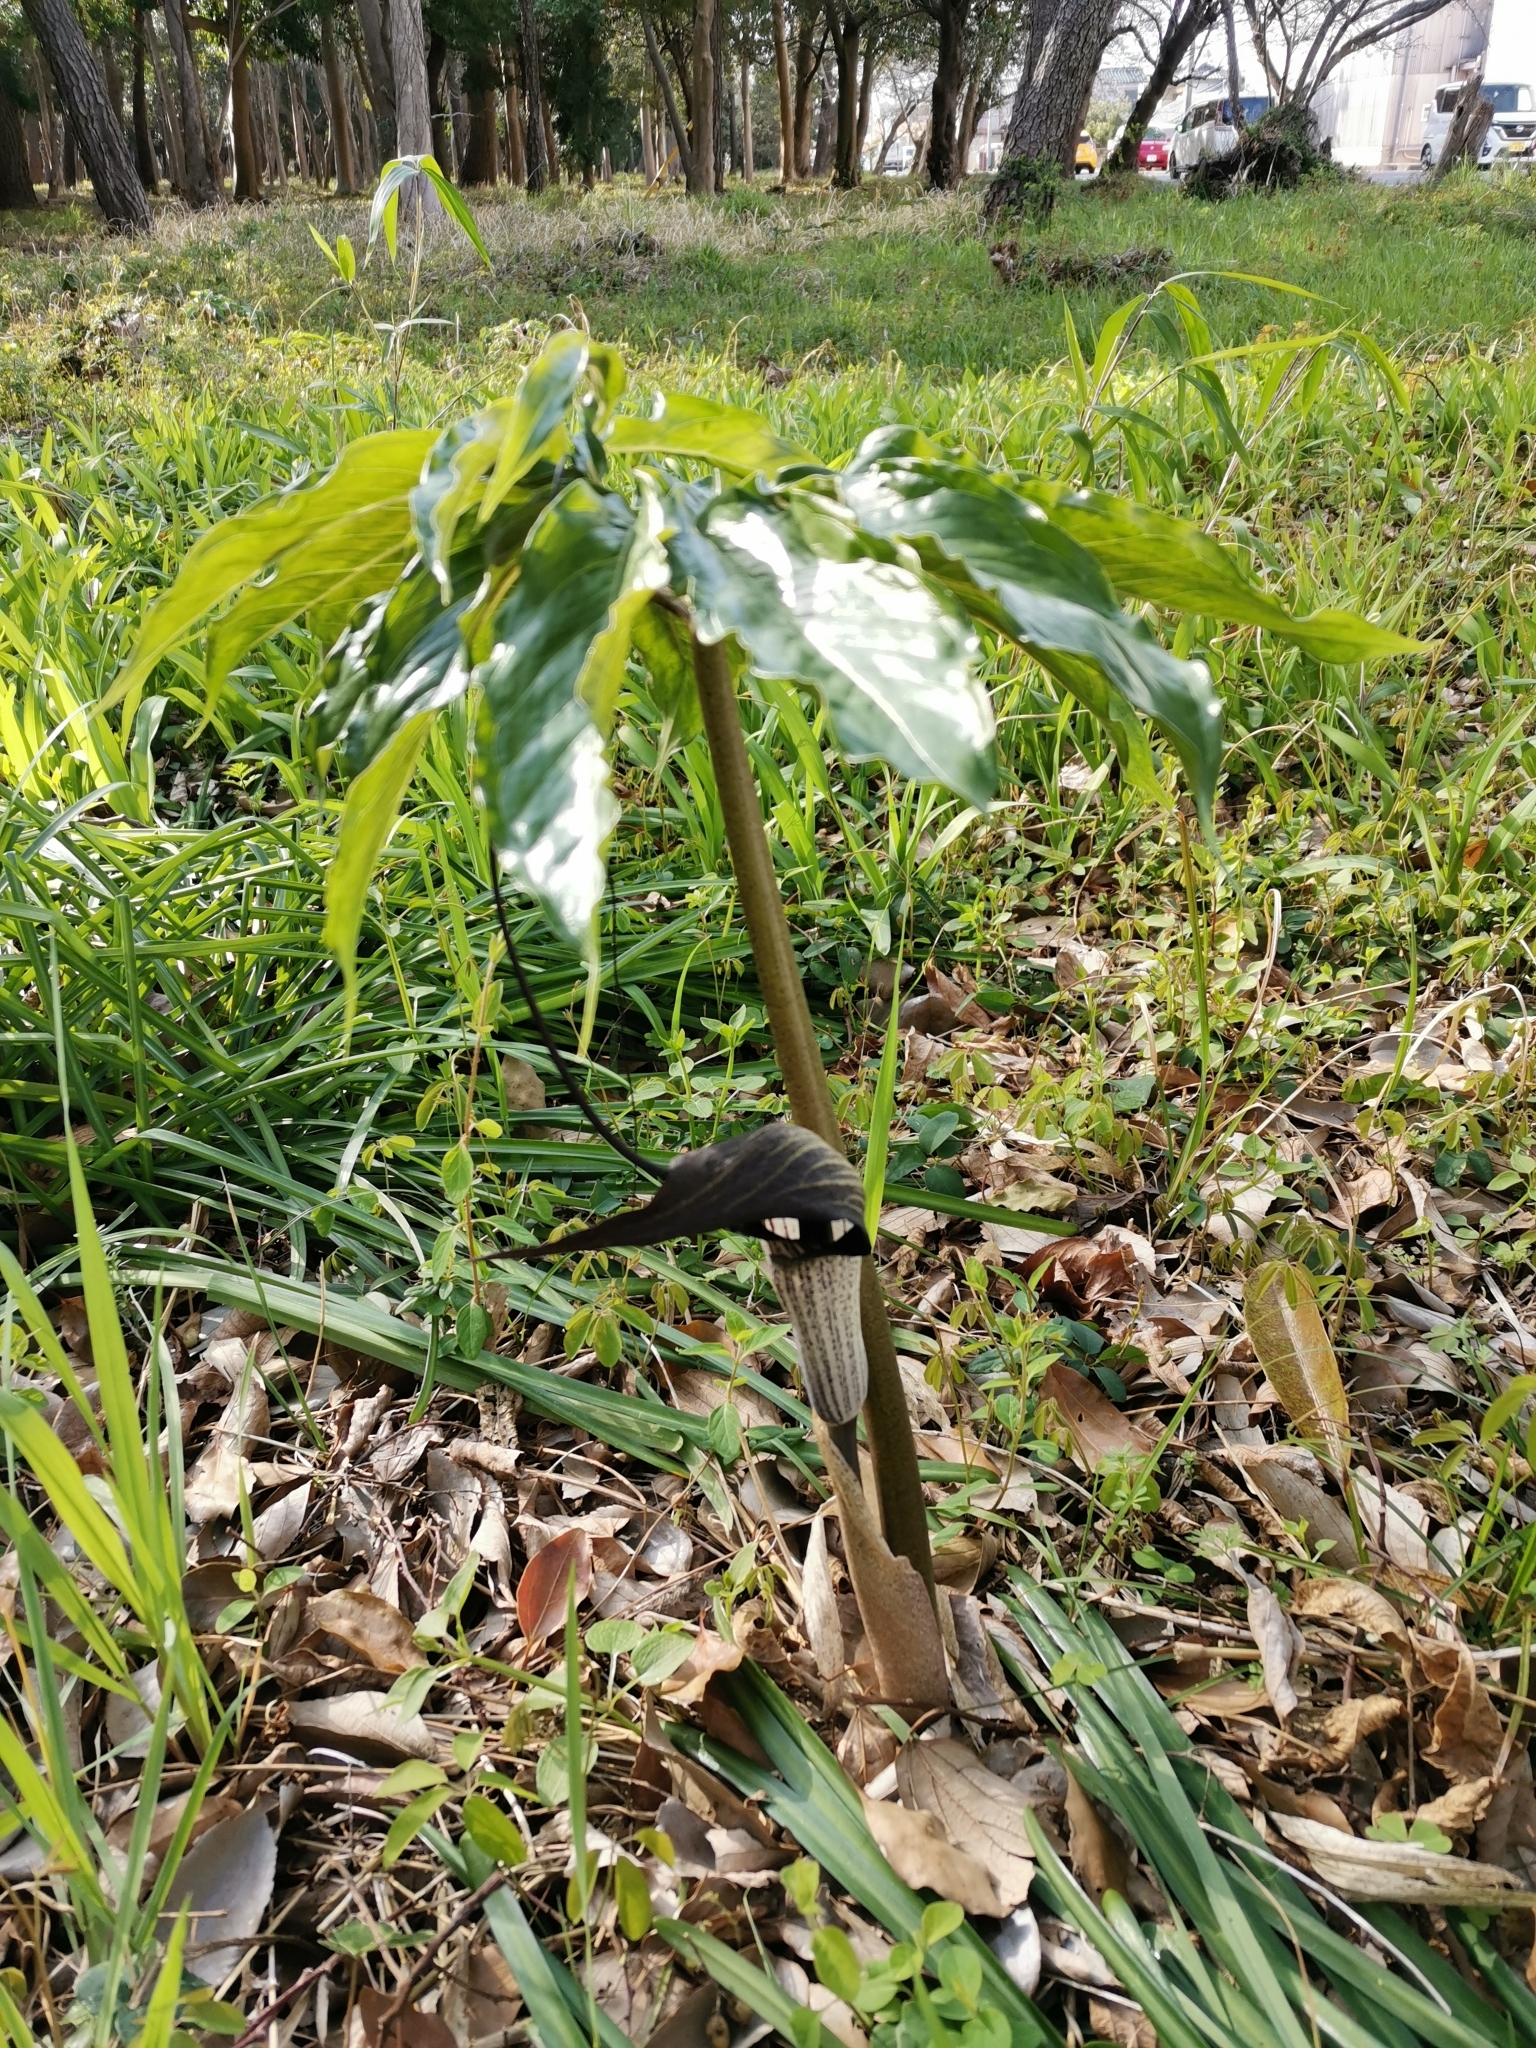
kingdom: Plantae
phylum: Tracheophyta
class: Liliopsida
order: Alismatales
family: Araceae
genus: Arisaema
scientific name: Arisaema thunbergii
